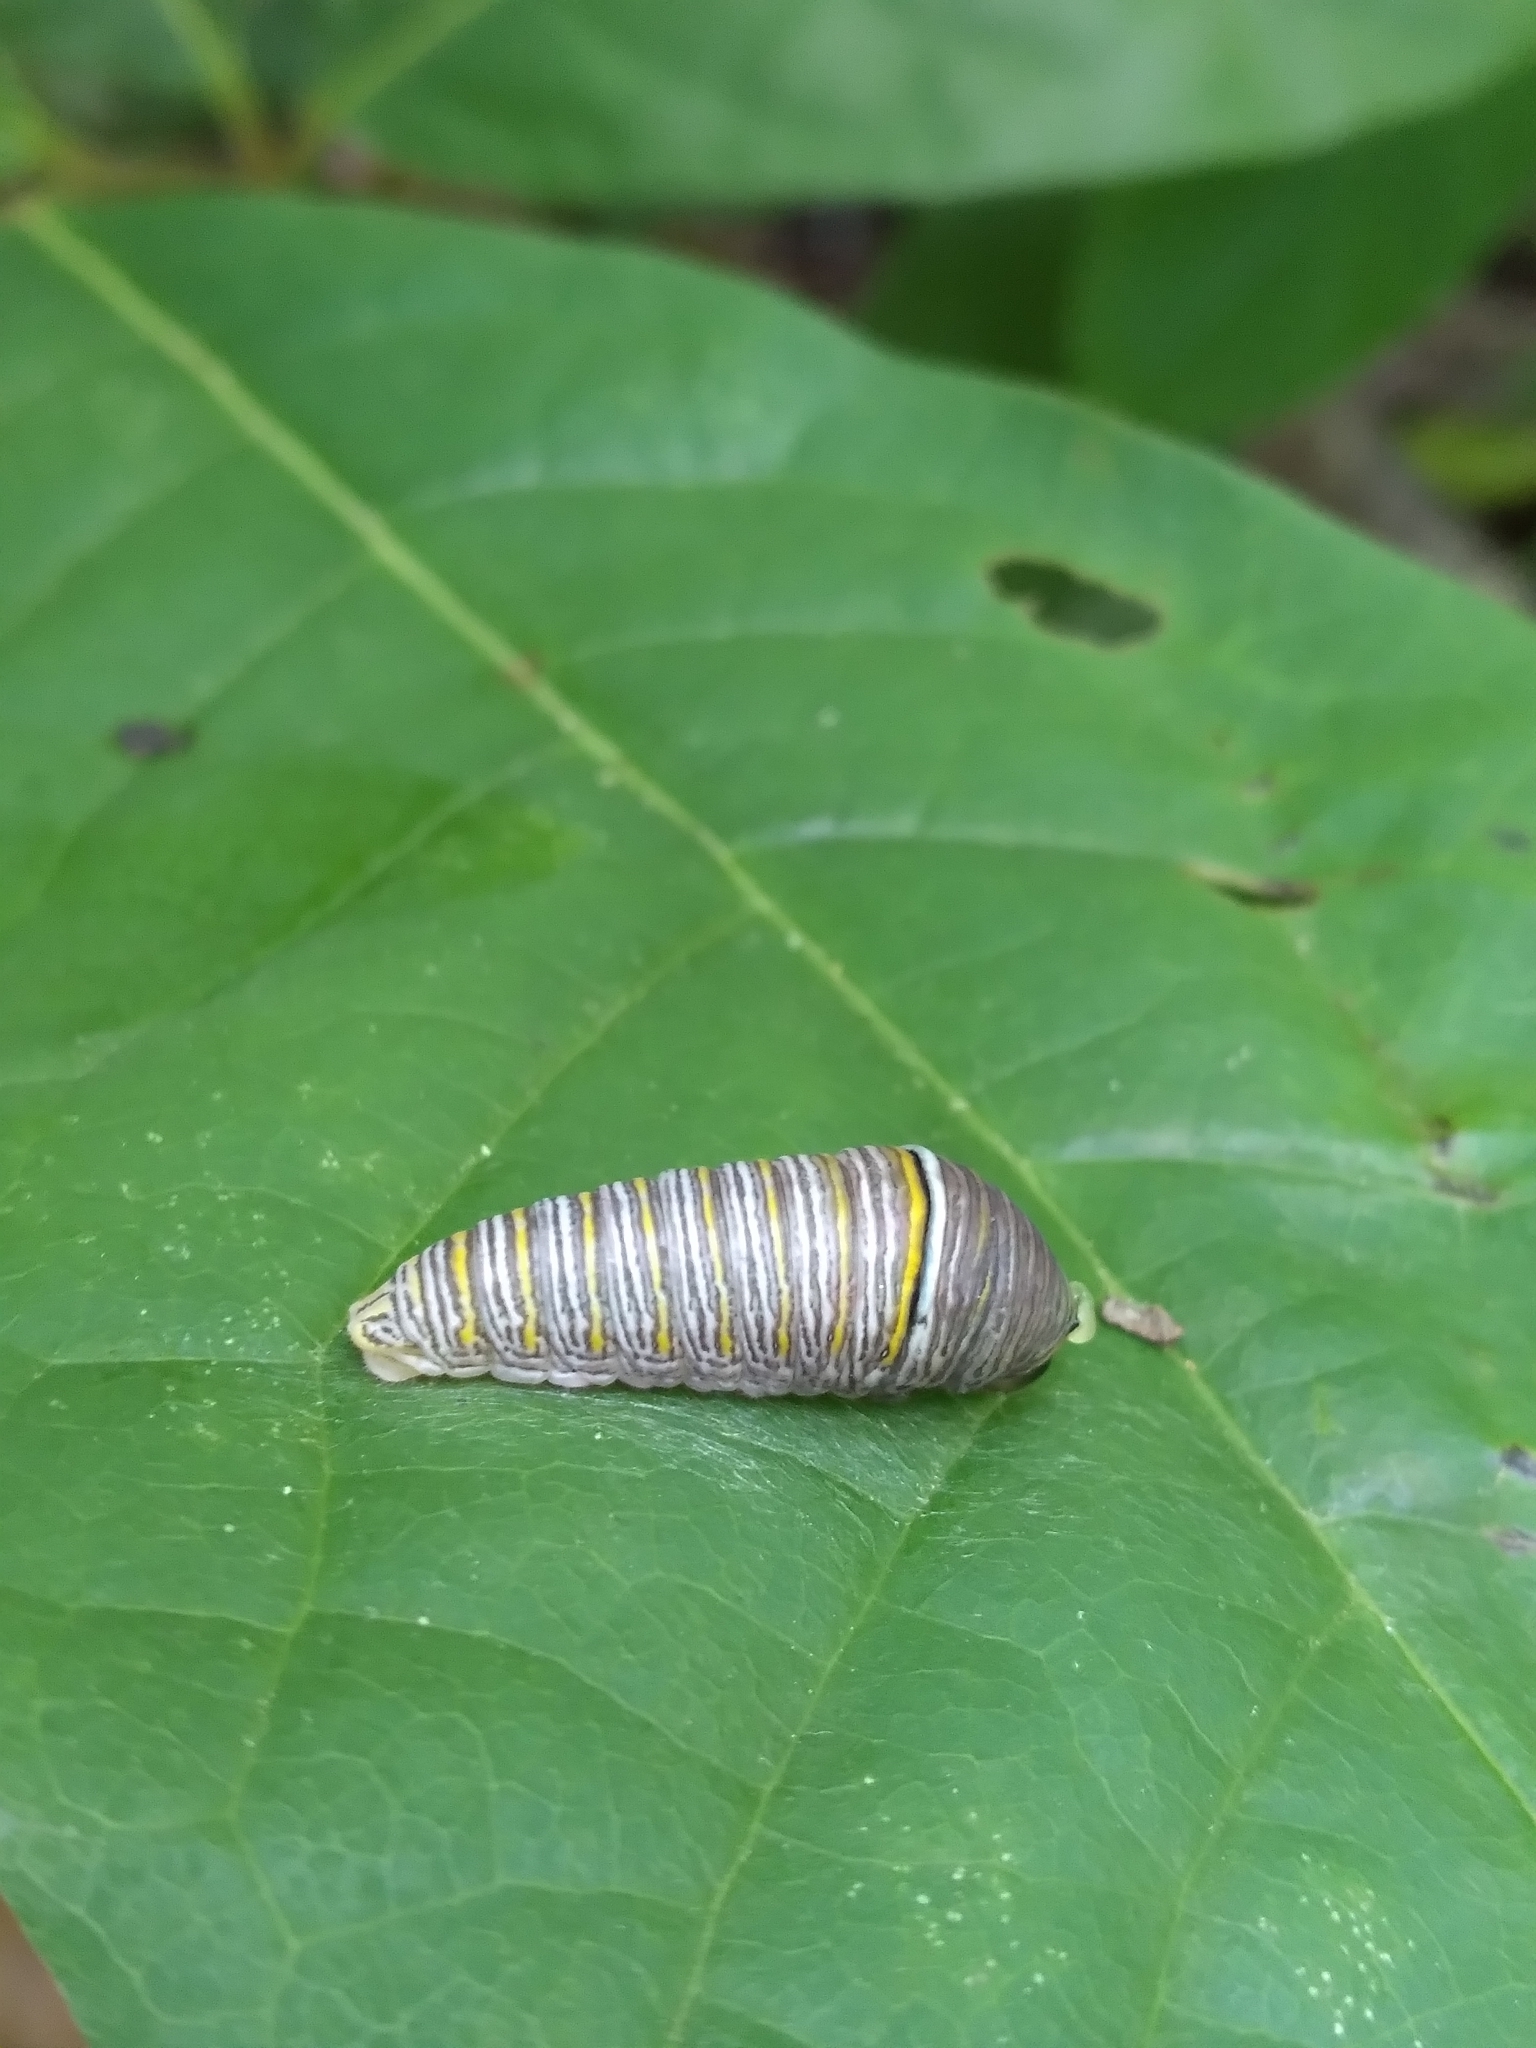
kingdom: Animalia
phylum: Arthropoda
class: Insecta
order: Lepidoptera
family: Papilionidae
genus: Protographium
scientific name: Protographium marcellus
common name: Zebra swallowtail
